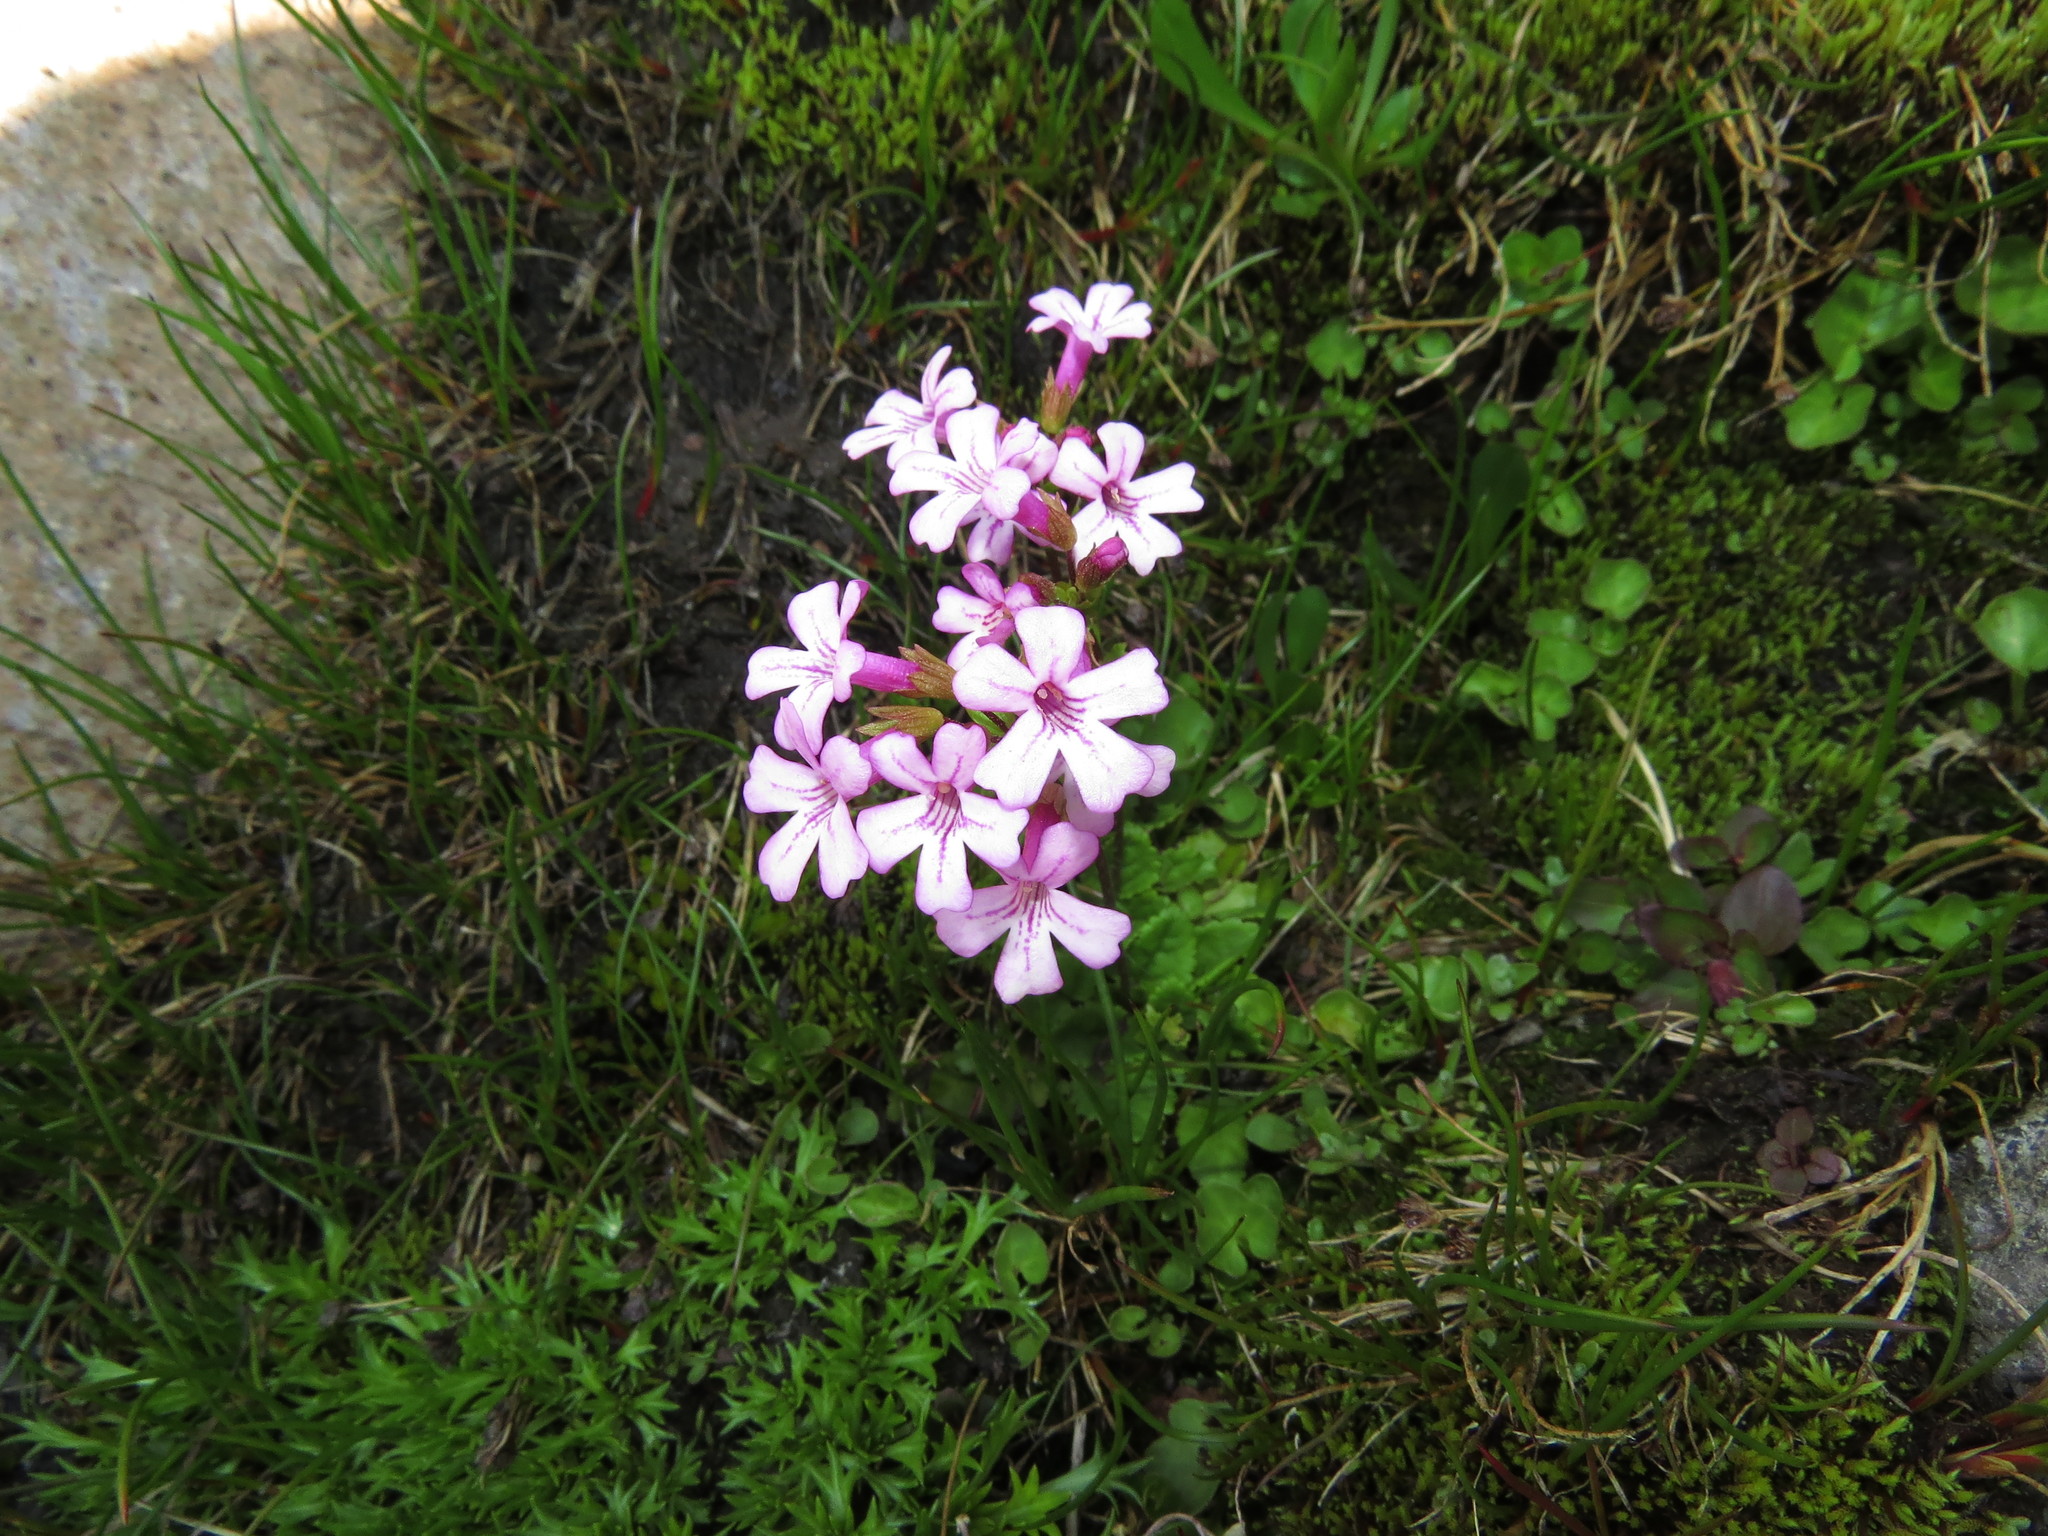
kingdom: Plantae
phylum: Tracheophyta
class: Magnoliopsida
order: Lamiales
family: Plantaginaceae
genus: Ourisia
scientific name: Ourisia alpina
